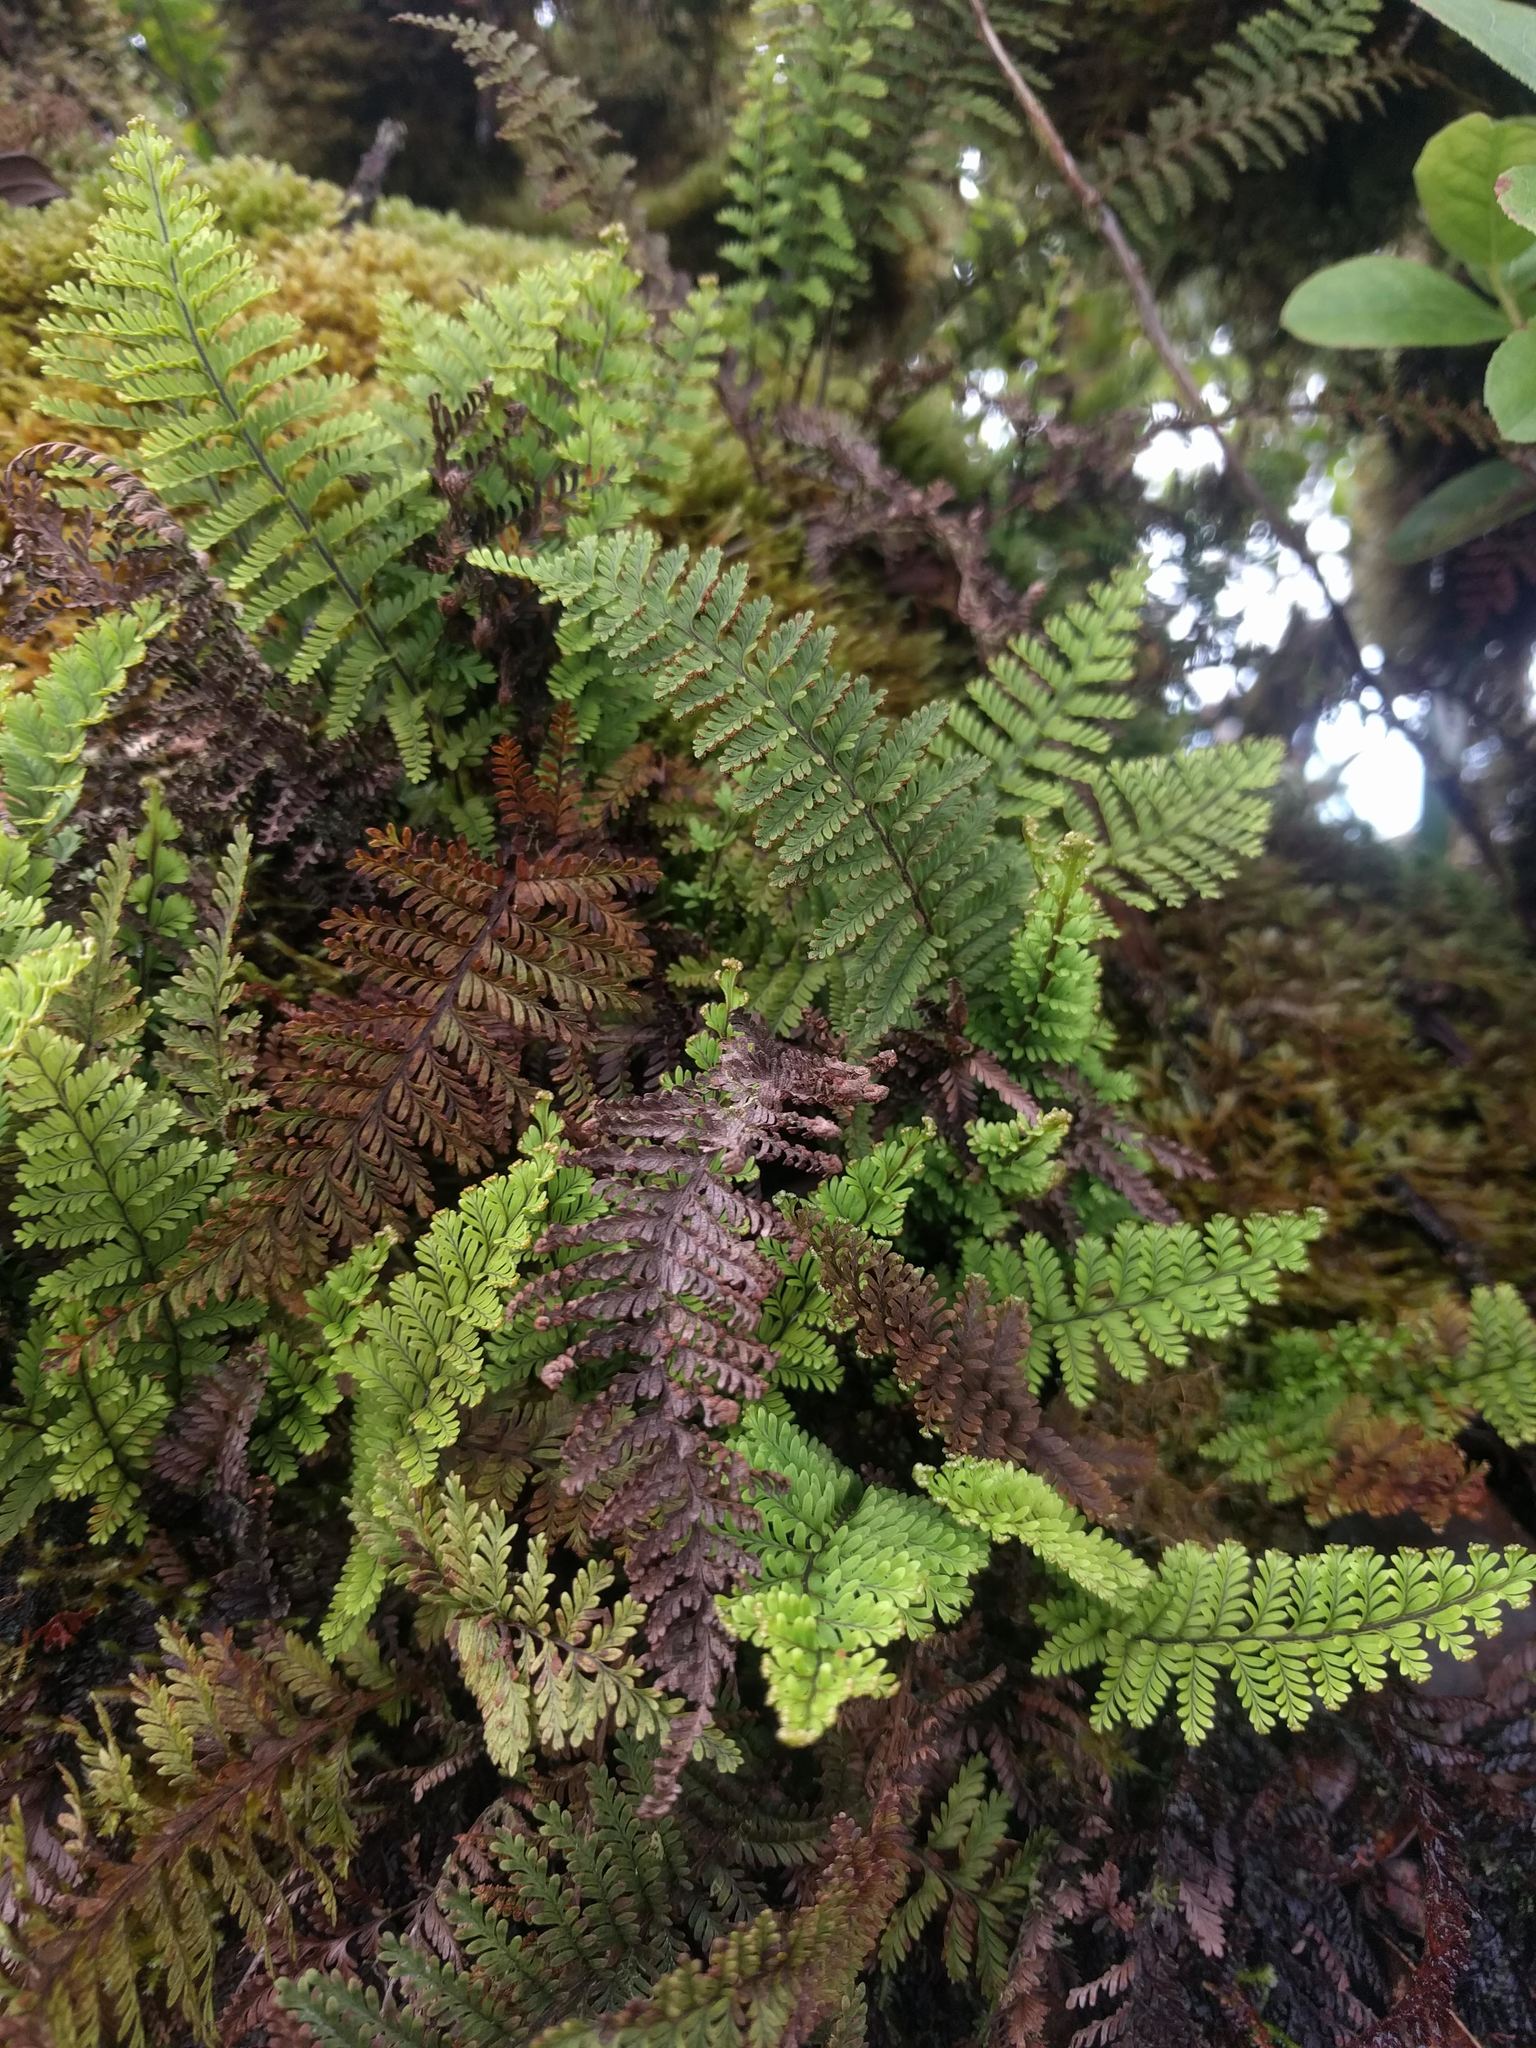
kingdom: Plantae
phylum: Tracheophyta
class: Polypodiopsida
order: Polypodiales
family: Polypodiaceae
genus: Adenophorus
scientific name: Adenophorus tamariscinus
